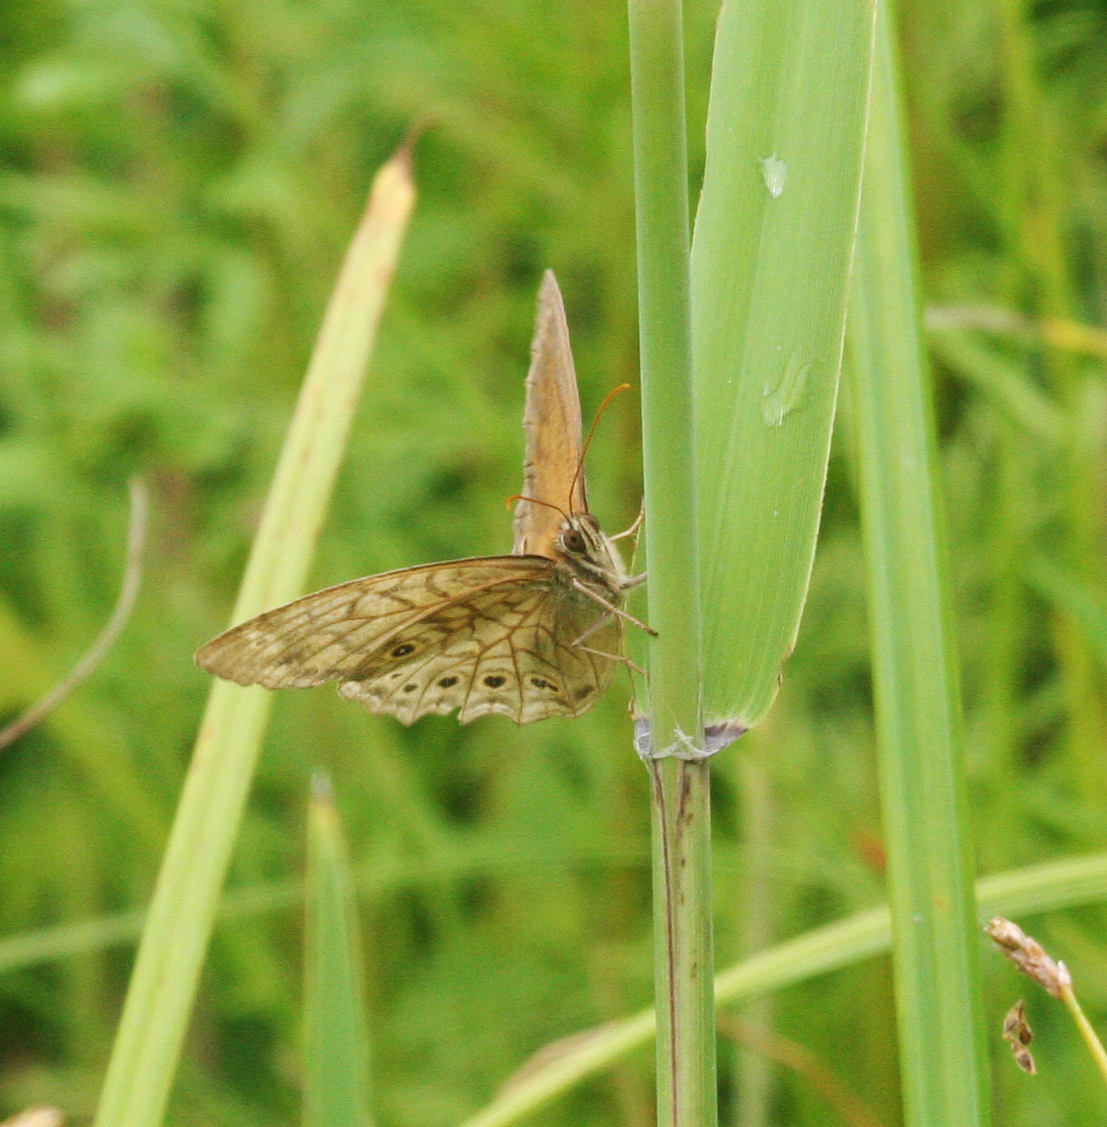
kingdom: Animalia
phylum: Arthropoda
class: Insecta
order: Lepidoptera
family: Nymphalidae
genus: Kirinia
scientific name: Kirinia epimenides
